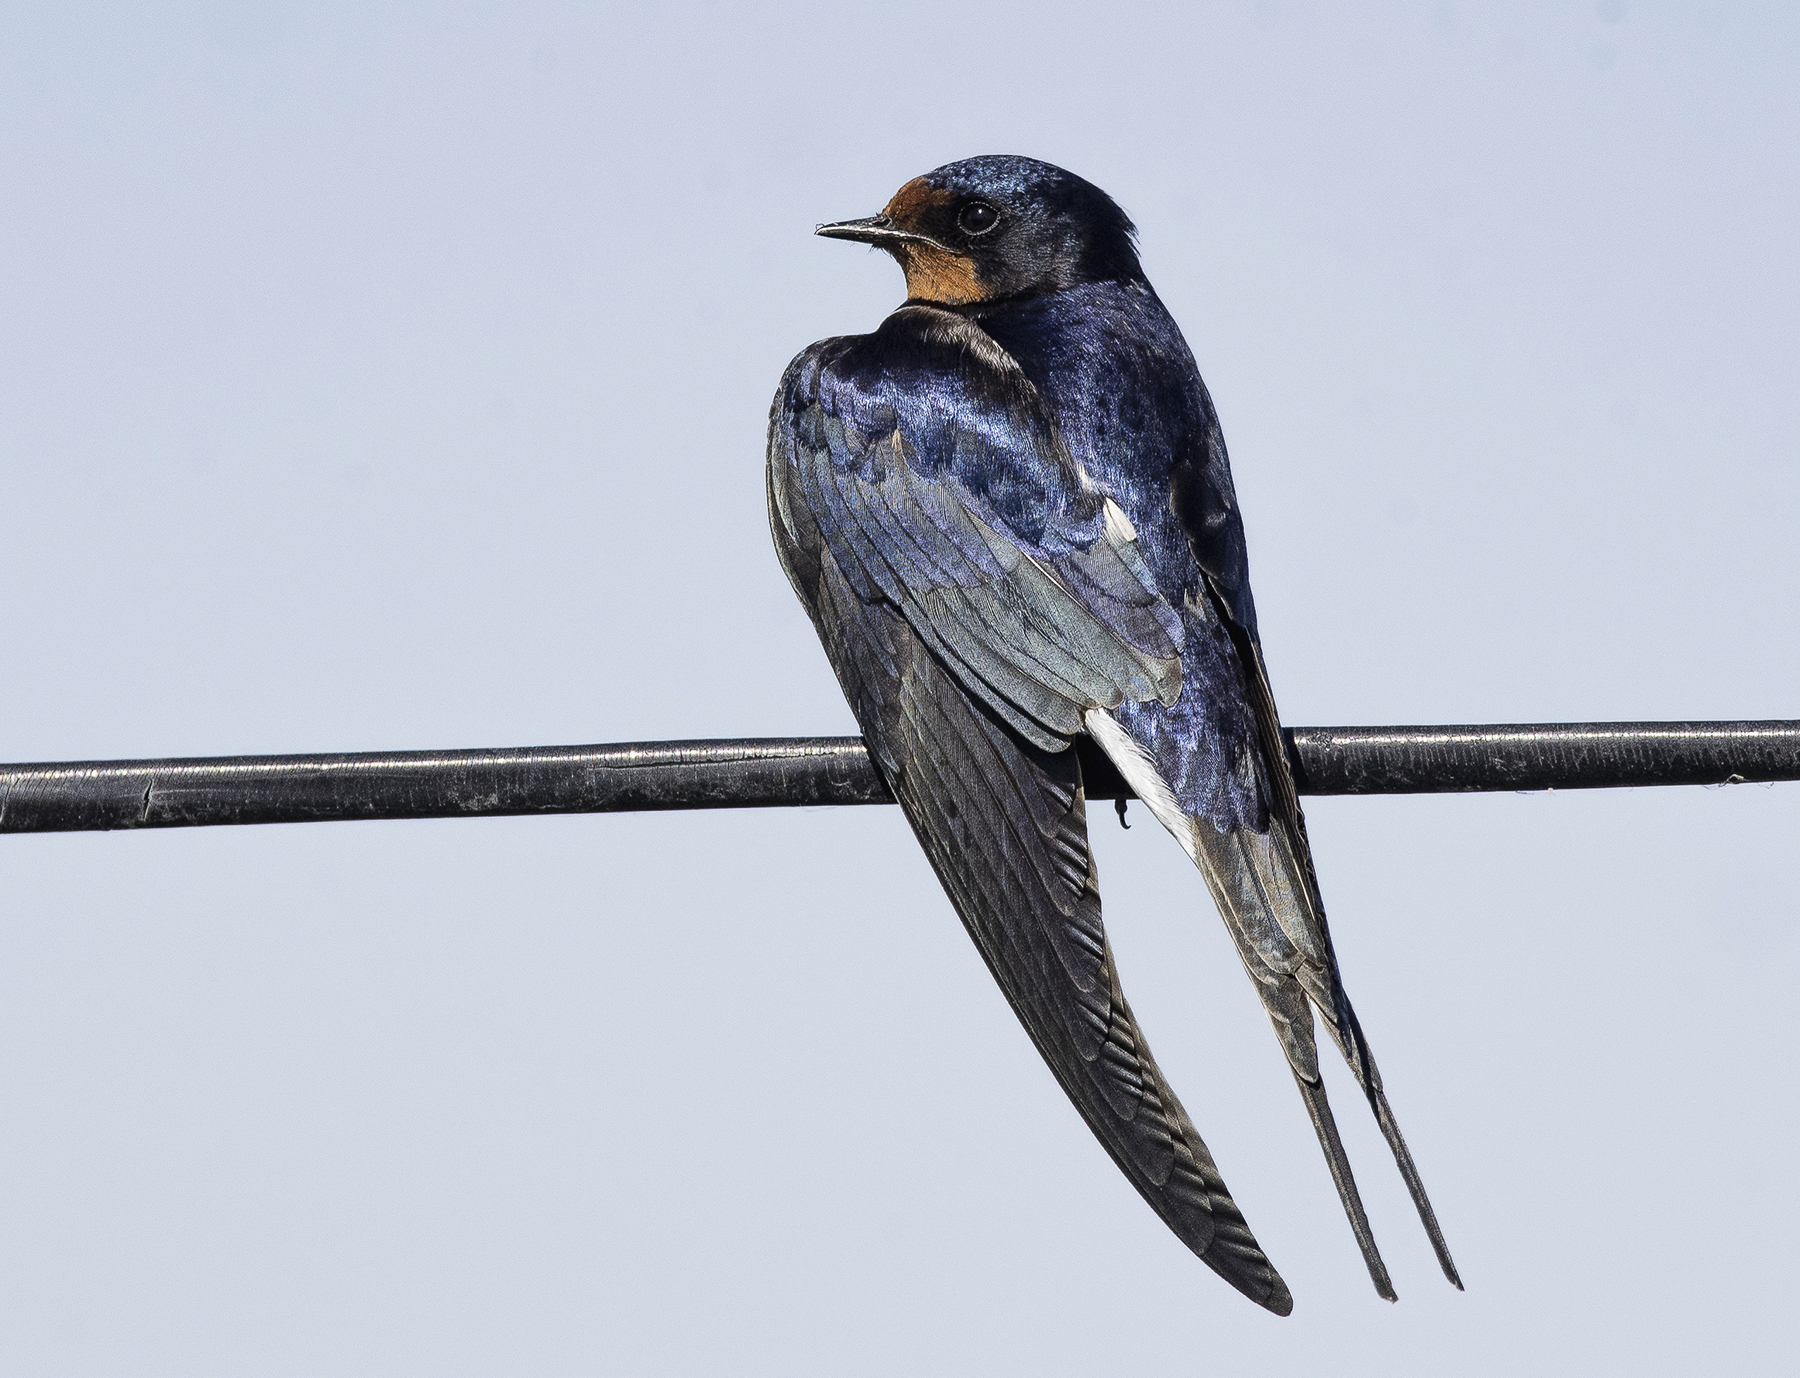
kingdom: Animalia
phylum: Chordata
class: Aves
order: Passeriformes
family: Hirundinidae
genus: Hirundo
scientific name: Hirundo rustica
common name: Barn swallow
